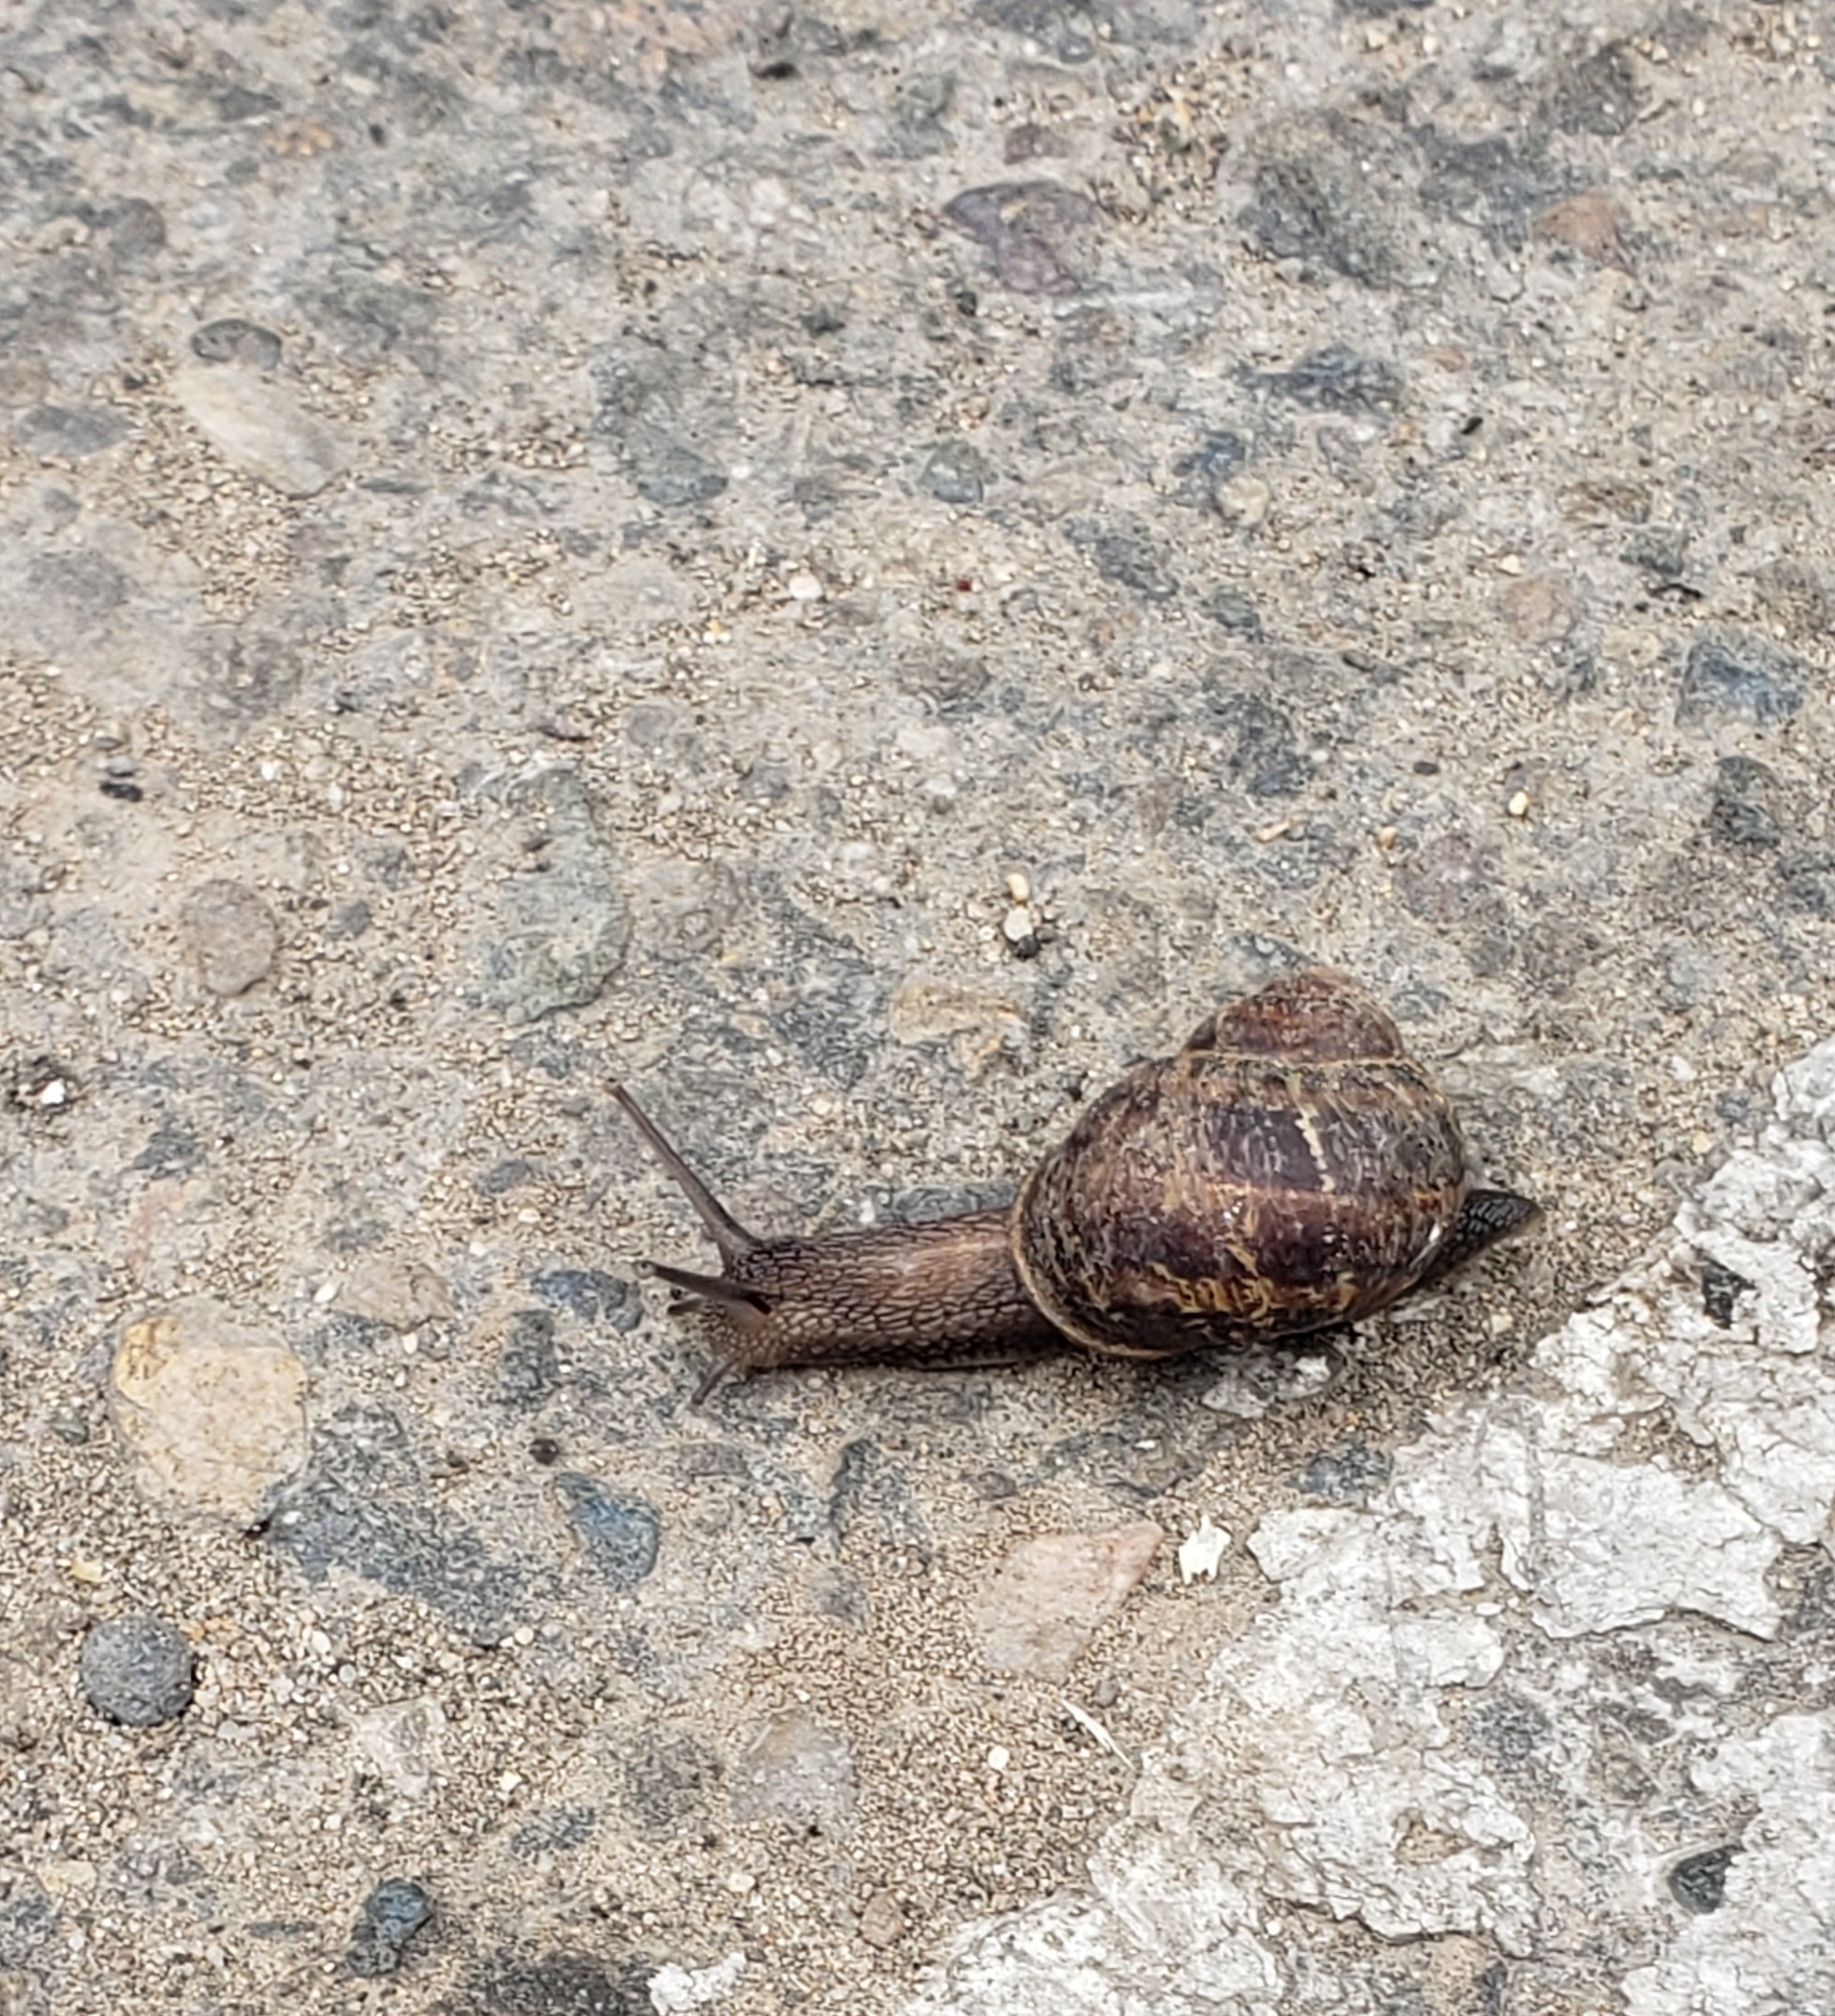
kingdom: Animalia
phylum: Mollusca
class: Gastropoda
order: Stylommatophora
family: Helicidae
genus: Cornu
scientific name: Cornu aspersum
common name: Brown garden snail
